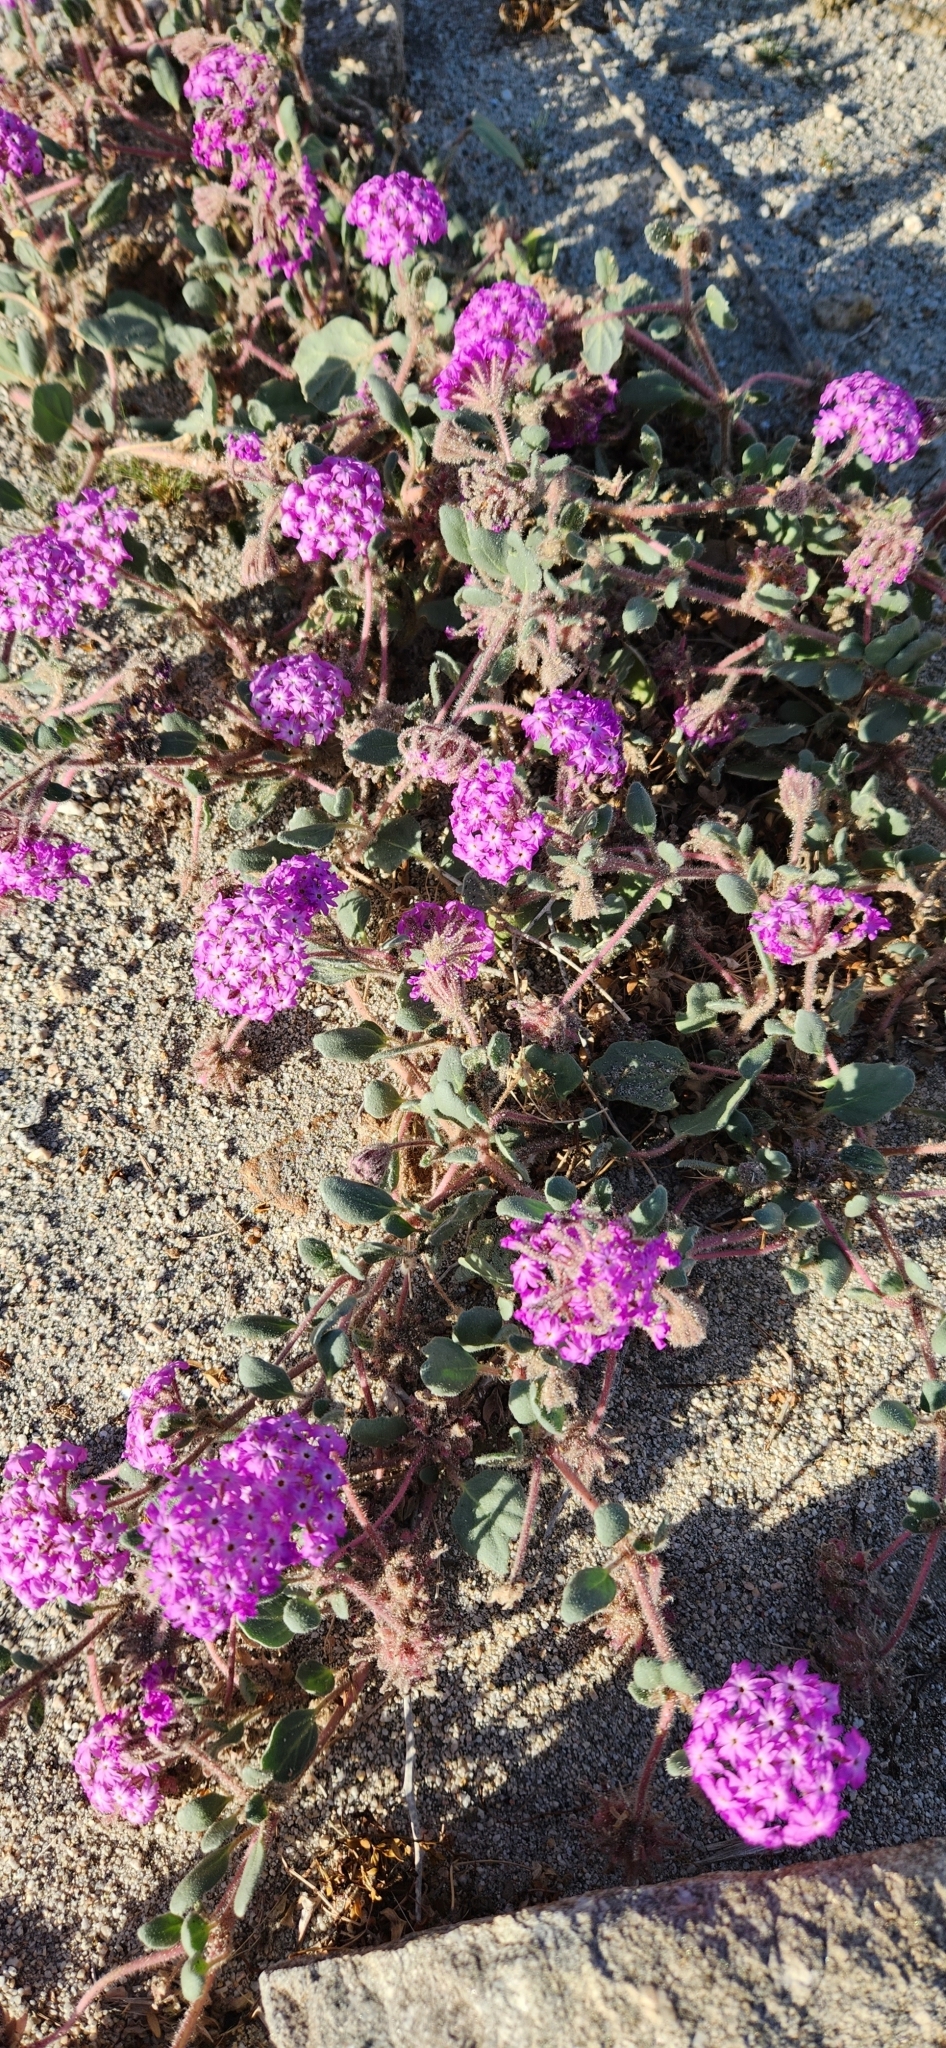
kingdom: Plantae
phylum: Tracheophyta
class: Magnoliopsida
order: Caryophyllales
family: Nyctaginaceae
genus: Abronia
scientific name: Abronia villosa
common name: Desert sand-verbena
